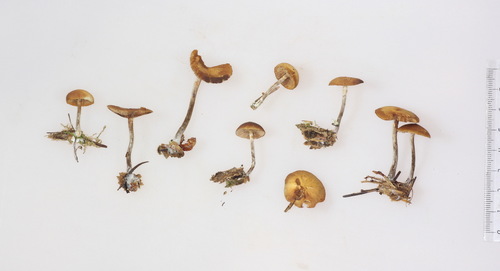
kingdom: Fungi
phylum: Basidiomycota
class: Agaricomycetes
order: Agaricales
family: Hymenogastraceae
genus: Galerina
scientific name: Galerina marginata
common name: Funeral bell
